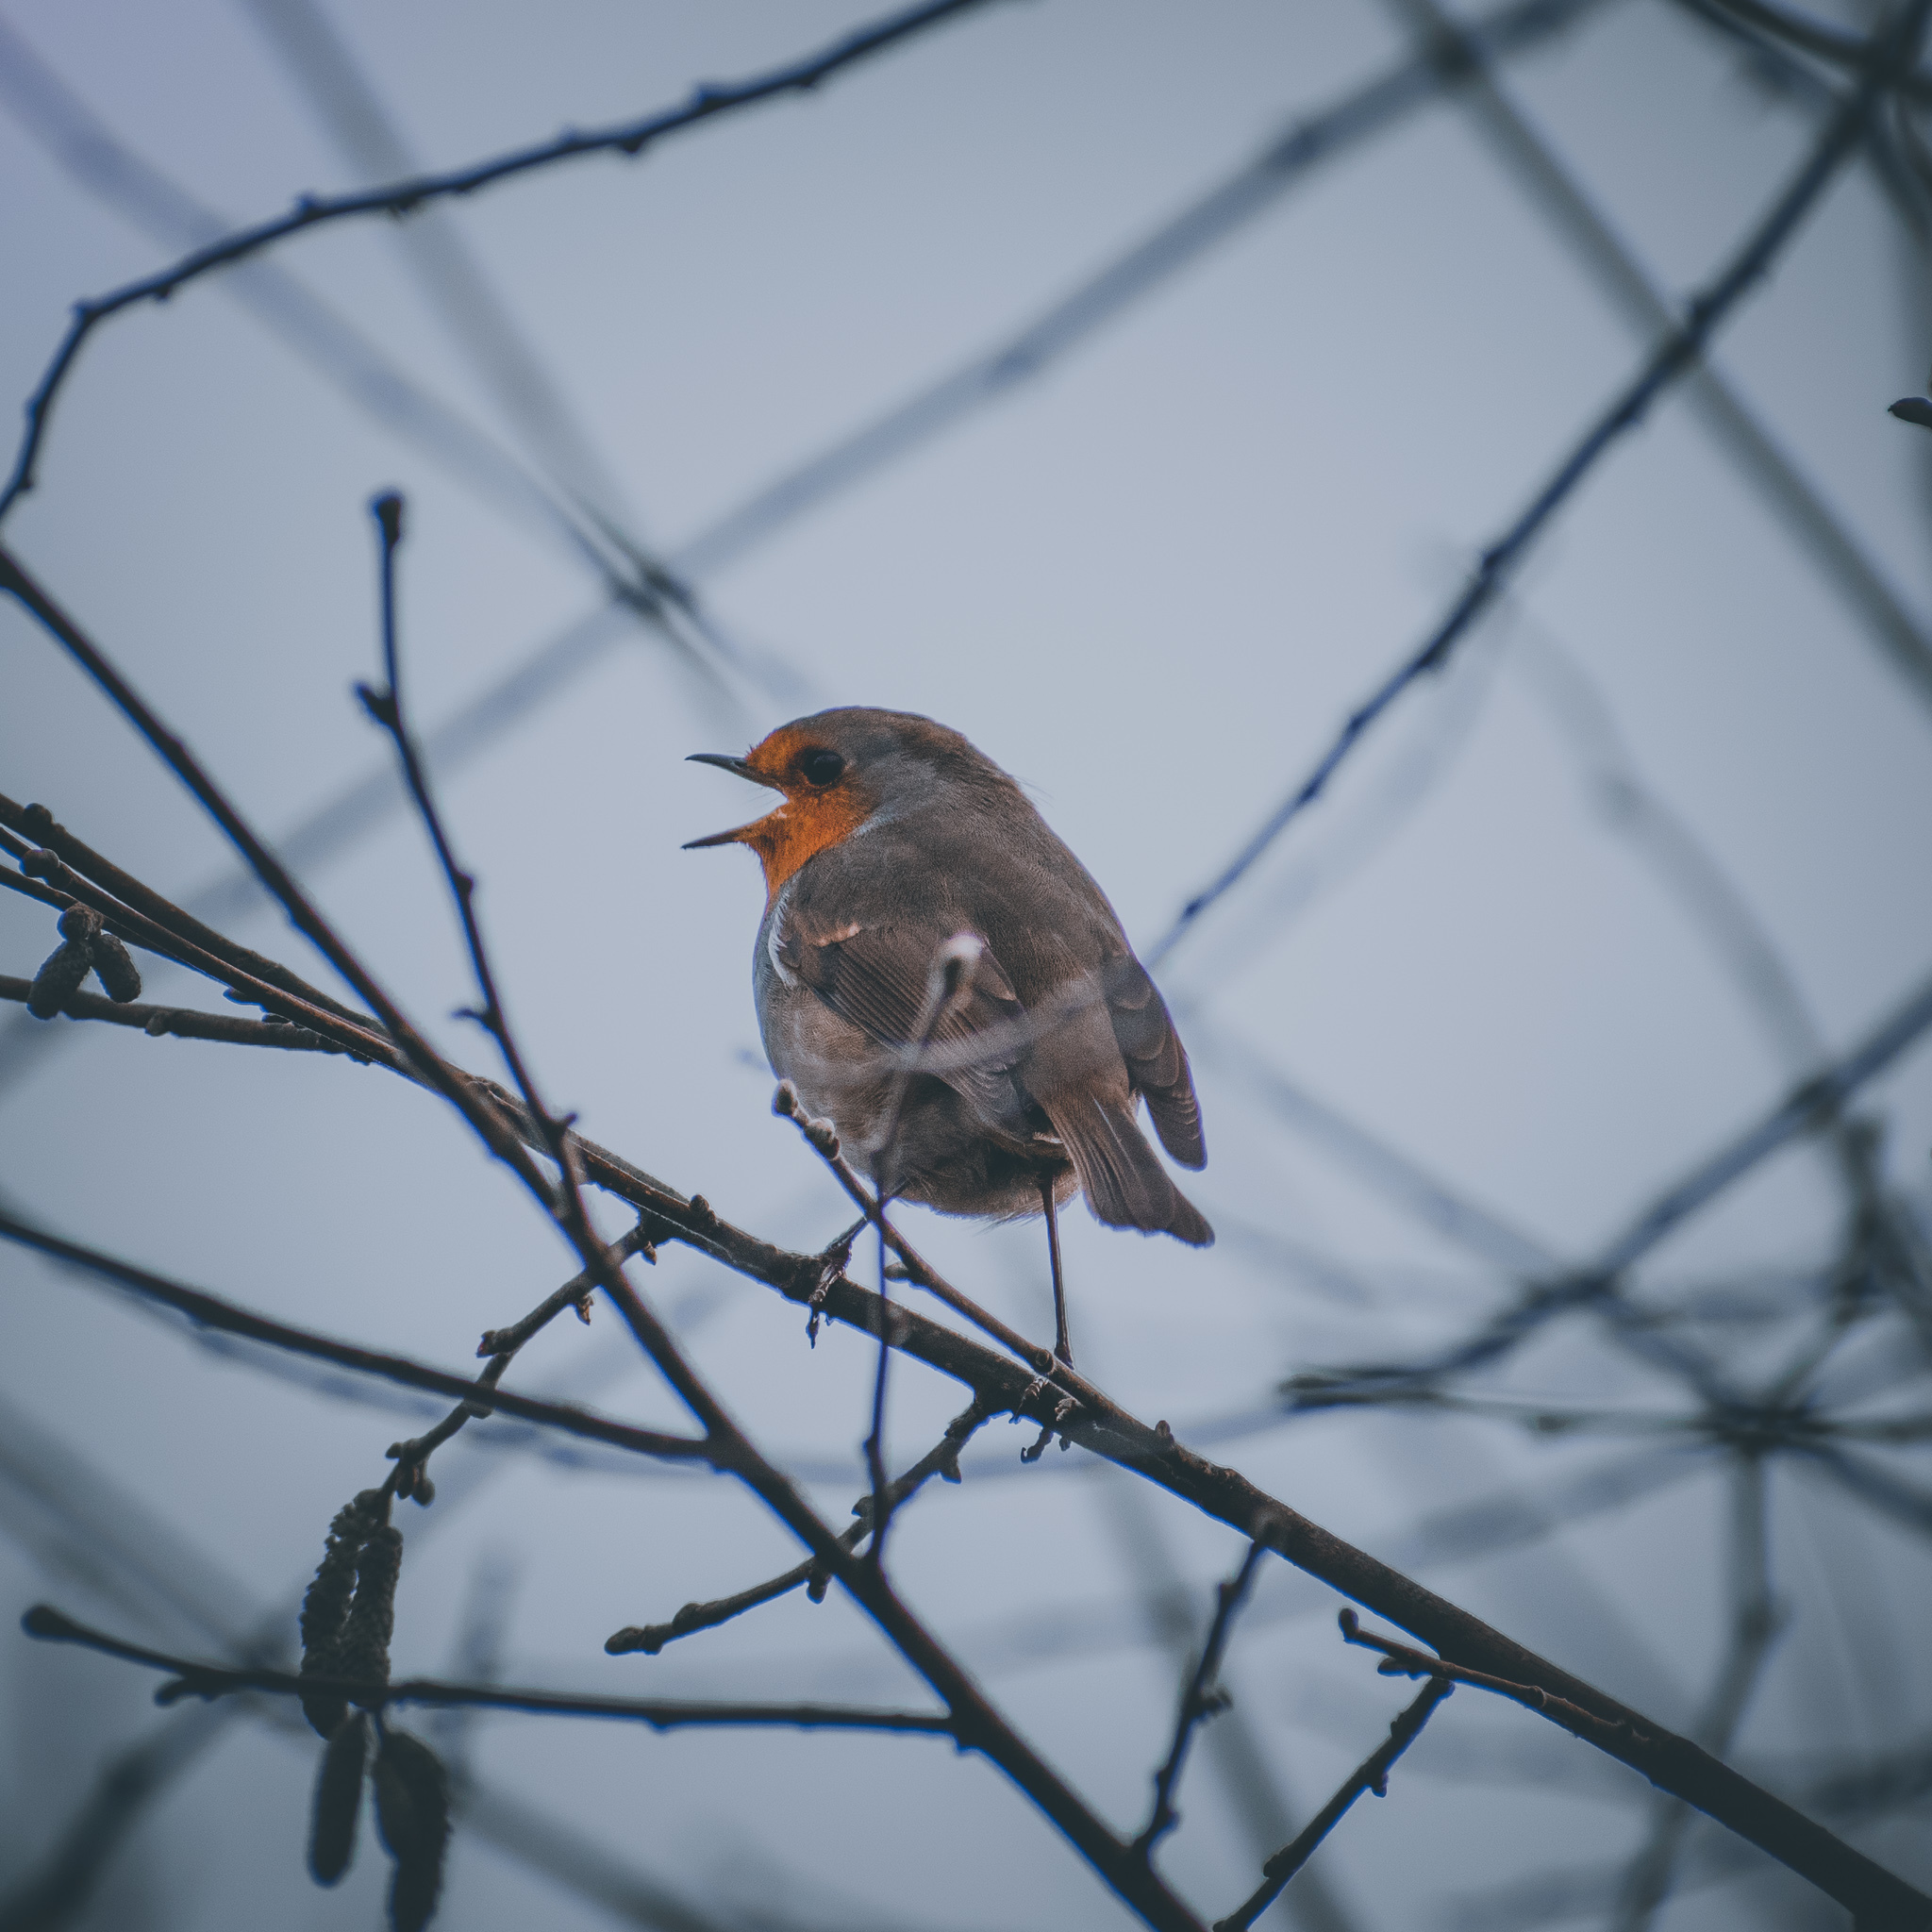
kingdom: Animalia
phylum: Chordata
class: Aves
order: Passeriformes
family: Muscicapidae
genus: Erithacus
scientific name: Erithacus rubecula
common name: European robin
